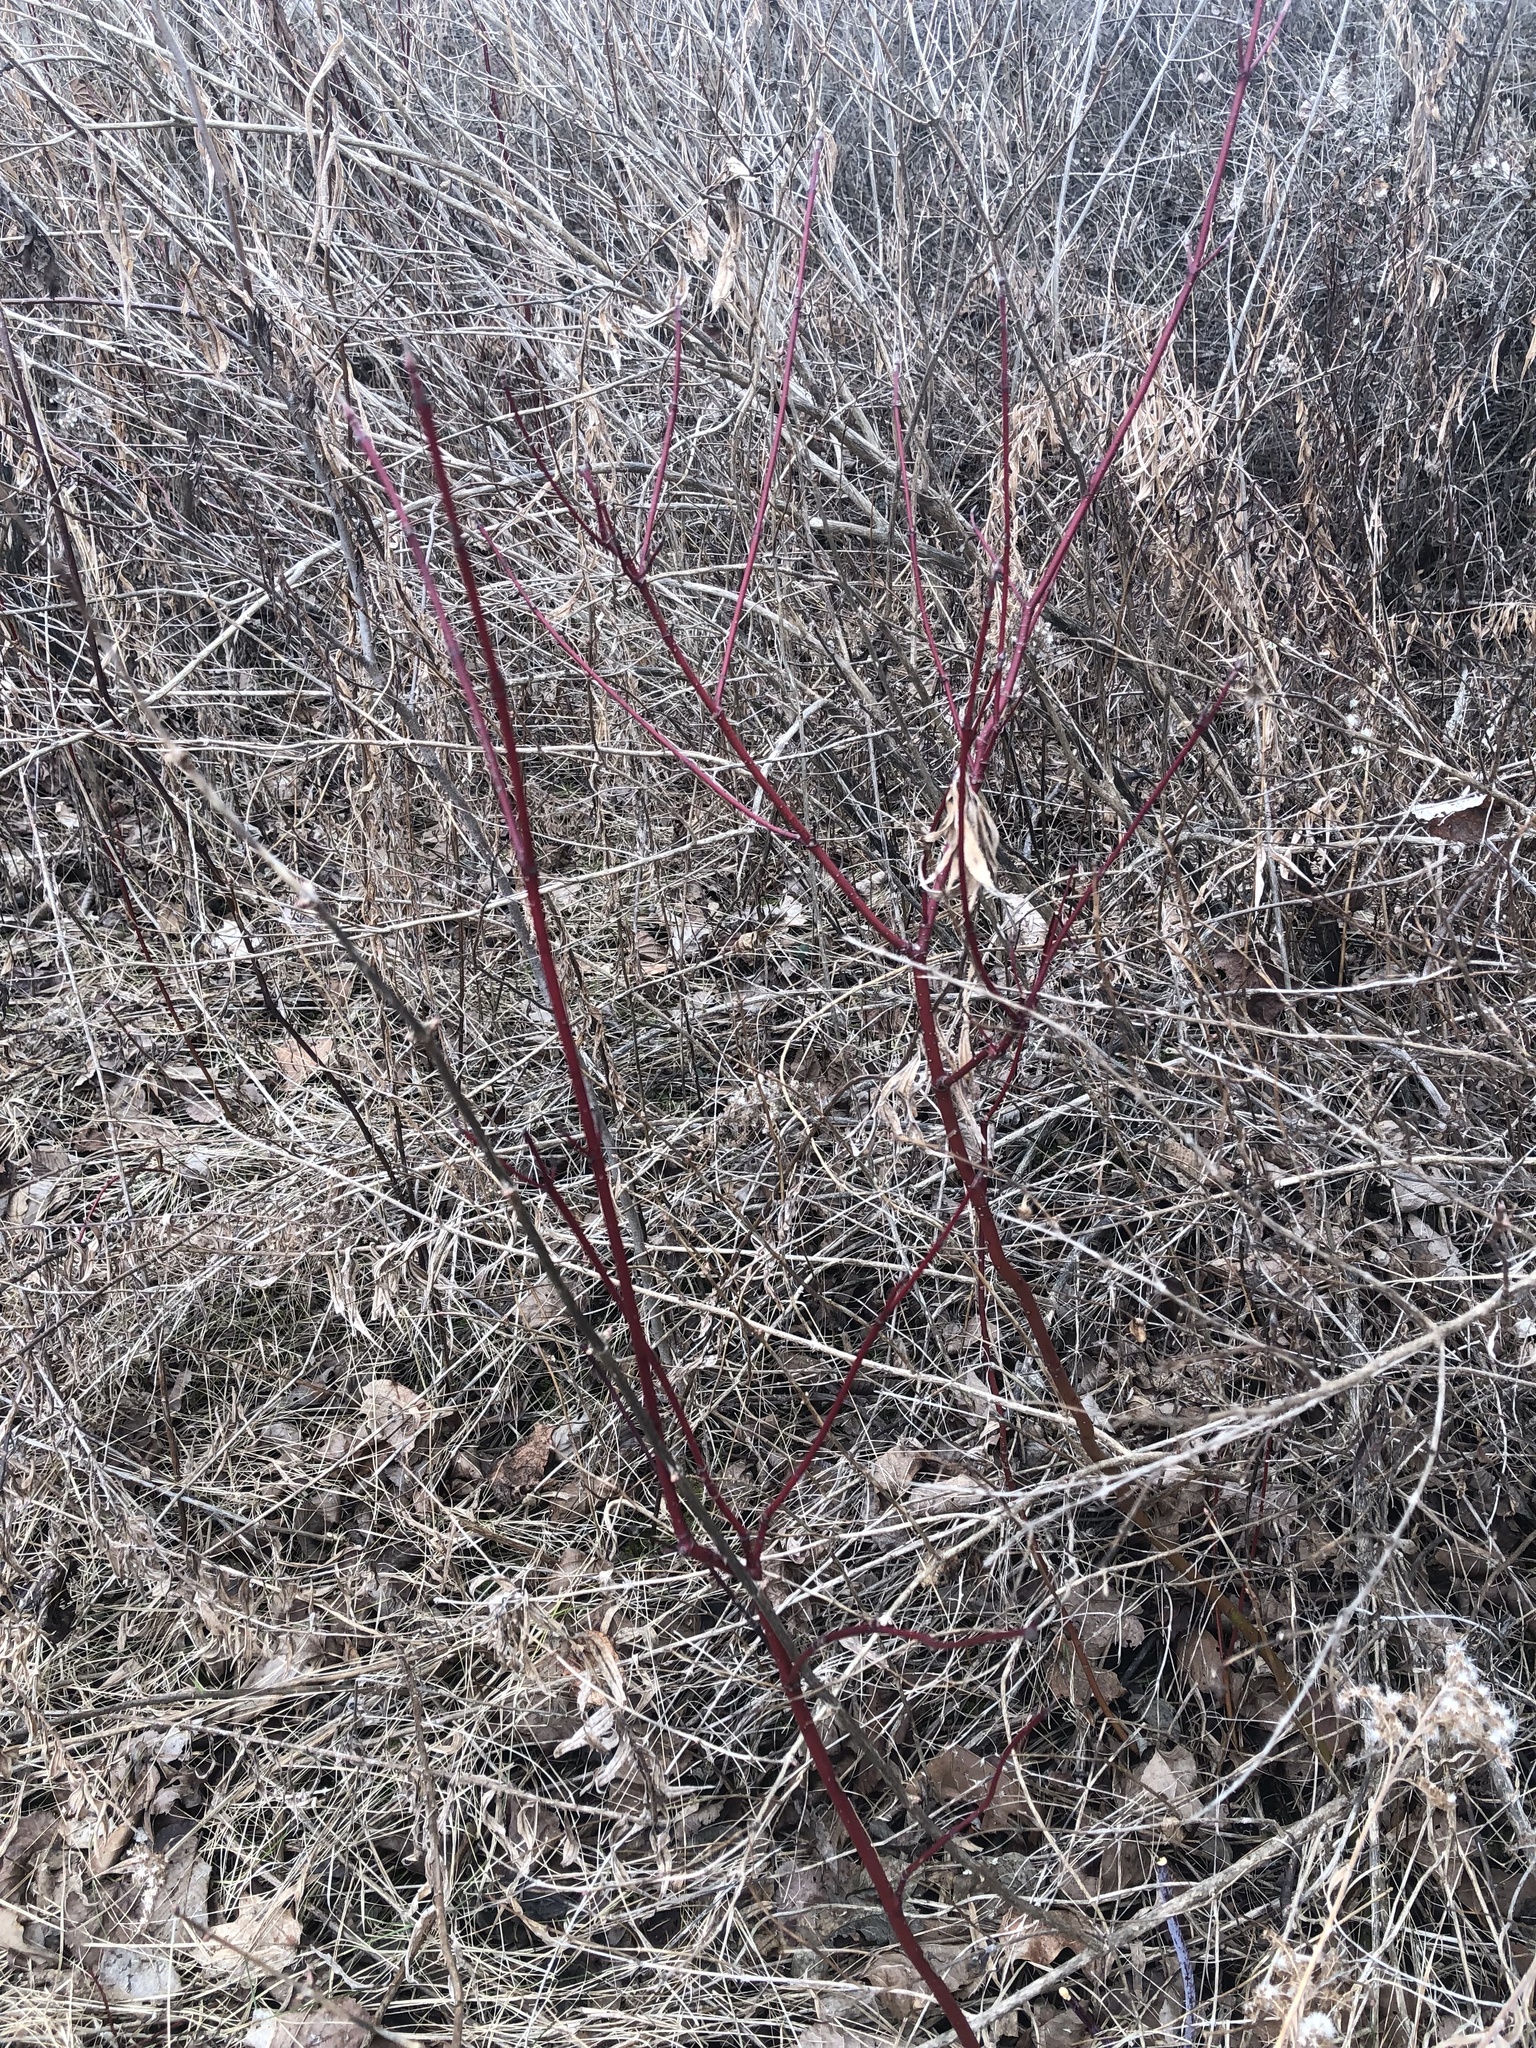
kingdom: Plantae
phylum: Tracheophyta
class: Magnoliopsida
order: Cornales
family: Cornaceae
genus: Cornus
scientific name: Cornus sericea
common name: Red-osier dogwood
